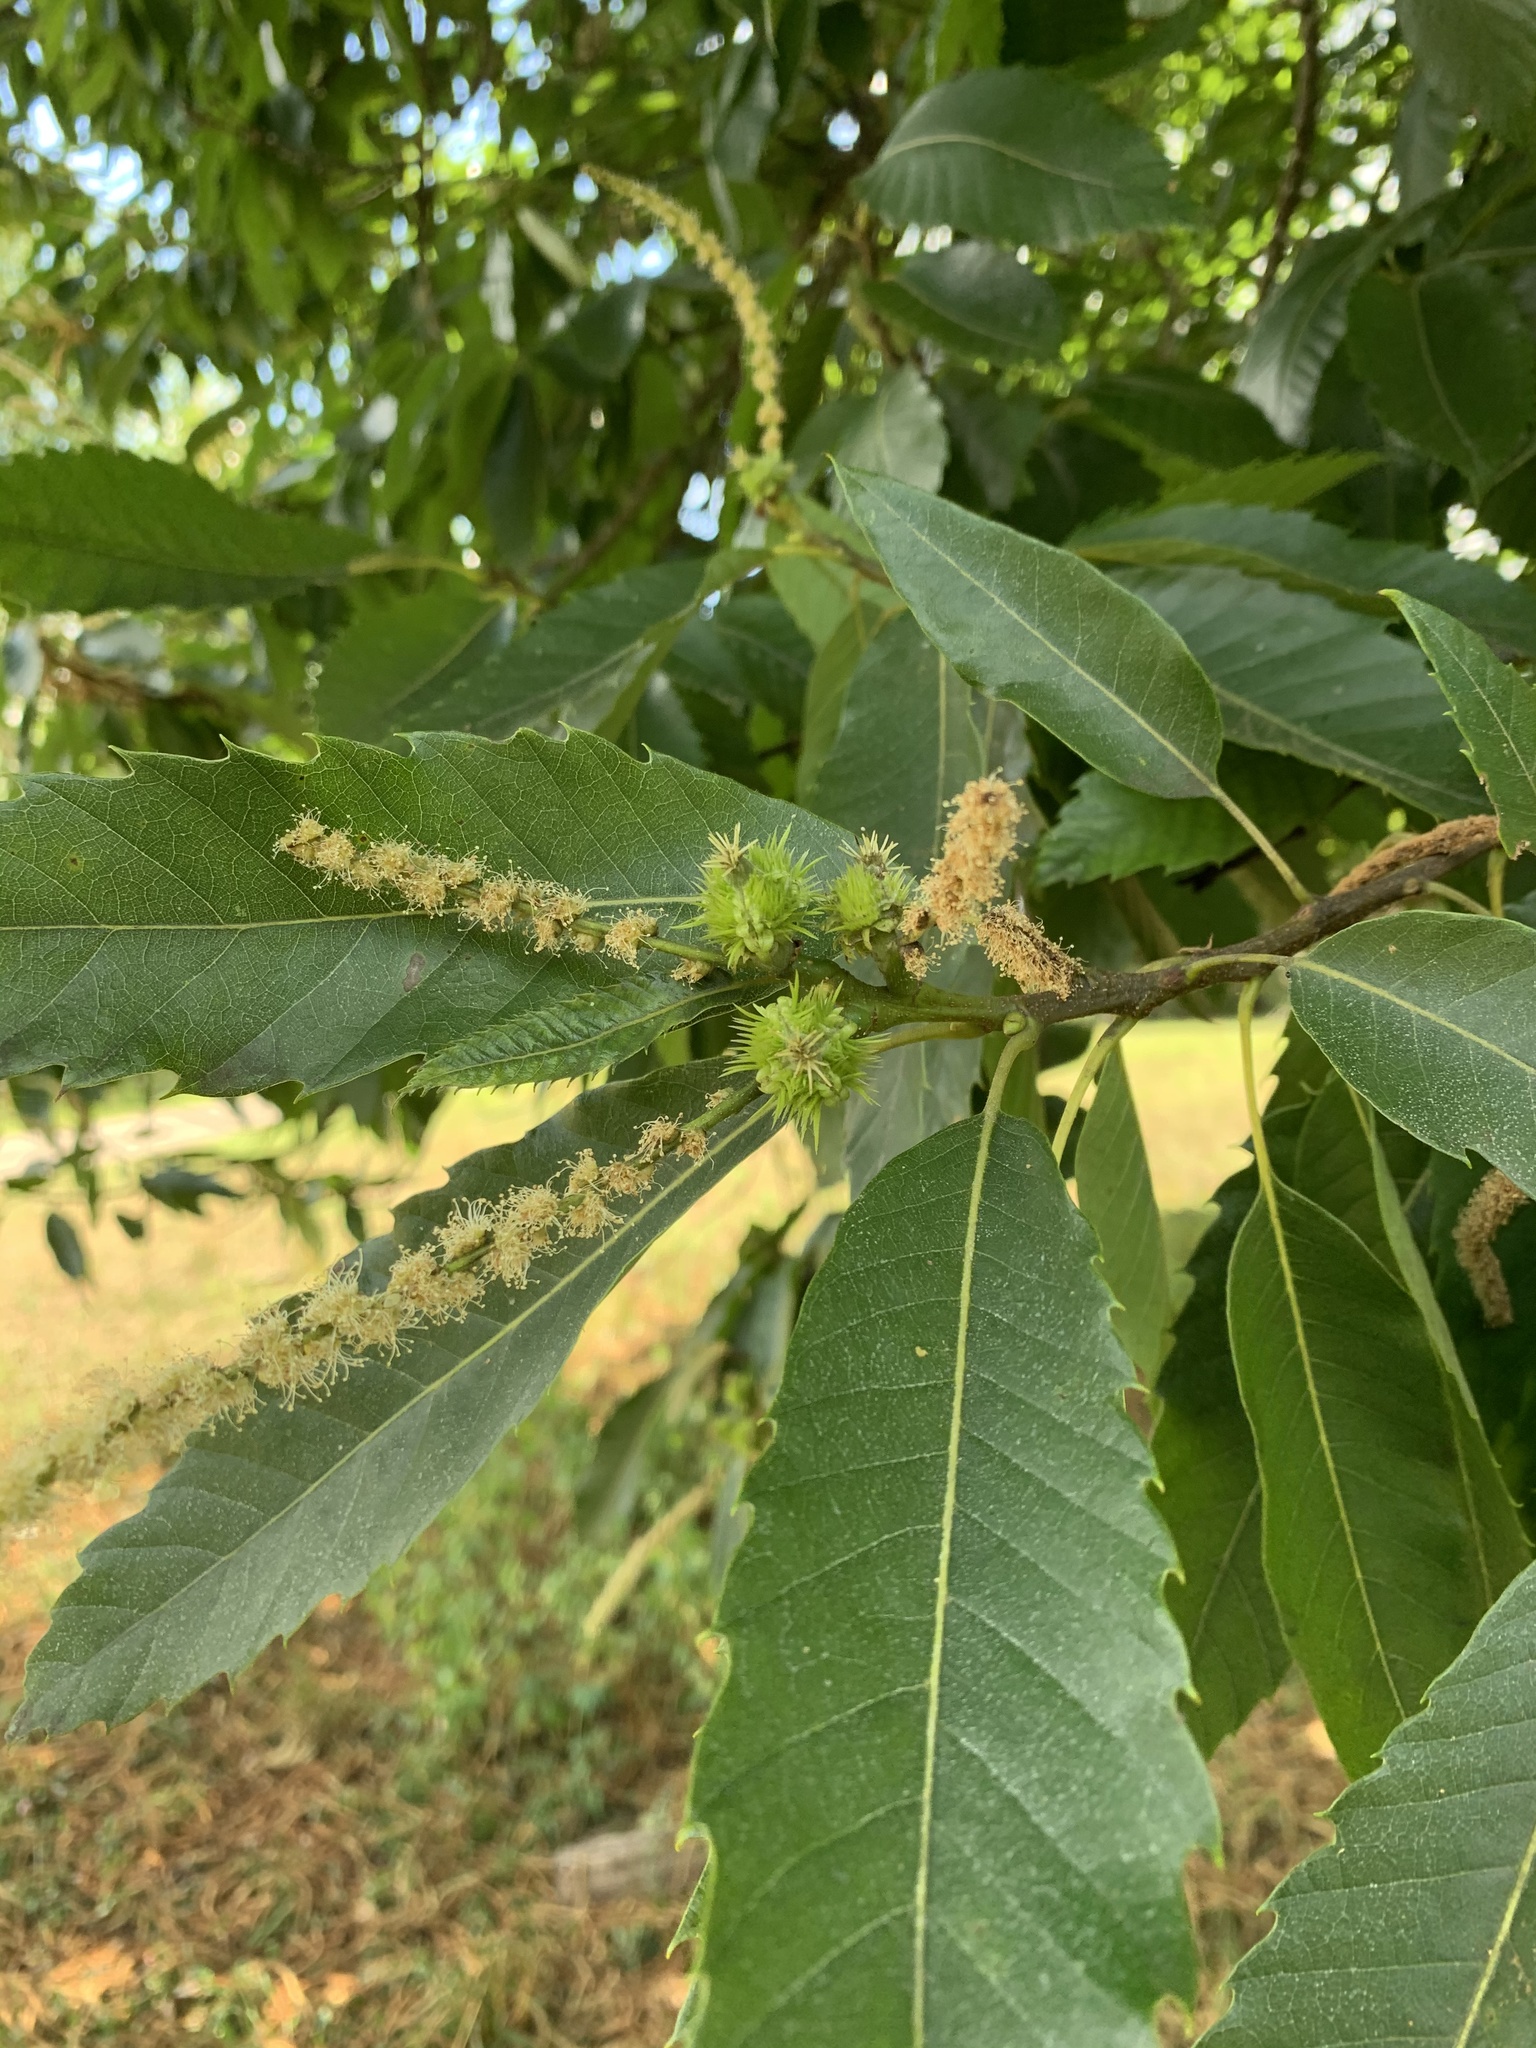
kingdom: Plantae
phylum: Tracheophyta
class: Magnoliopsida
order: Fagales
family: Fagaceae
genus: Castanea
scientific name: Castanea sativa
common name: Sweet chestnut
